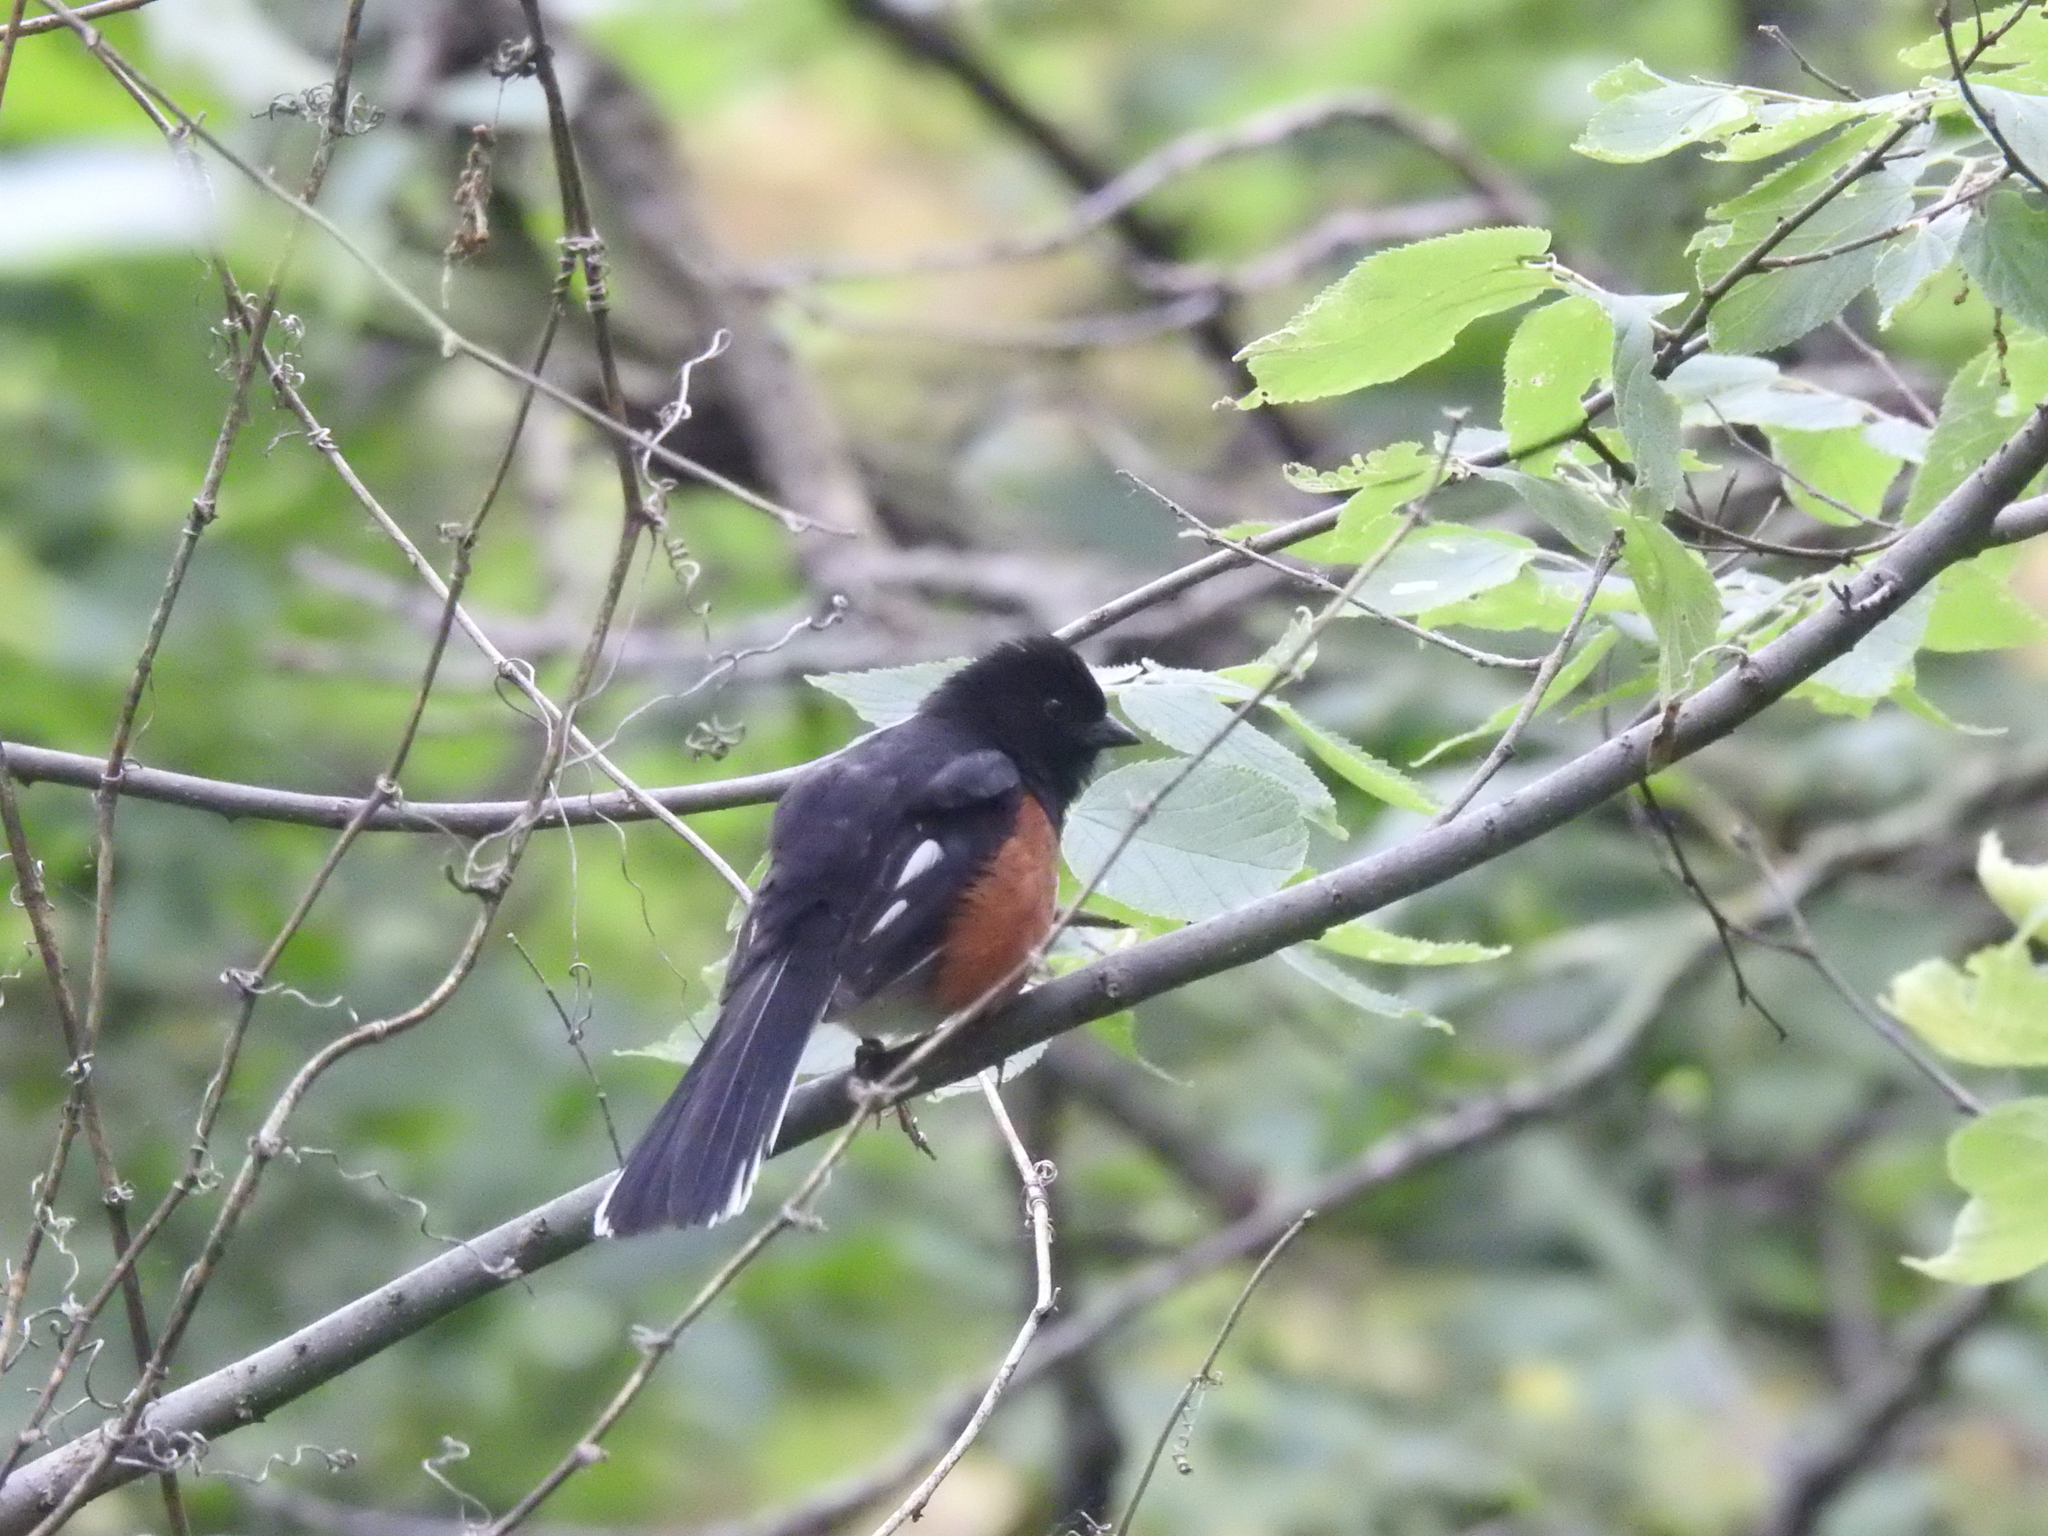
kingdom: Animalia
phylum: Chordata
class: Aves
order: Passeriformes
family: Passerellidae
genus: Pipilo
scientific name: Pipilo erythrophthalmus
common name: Eastern towhee
